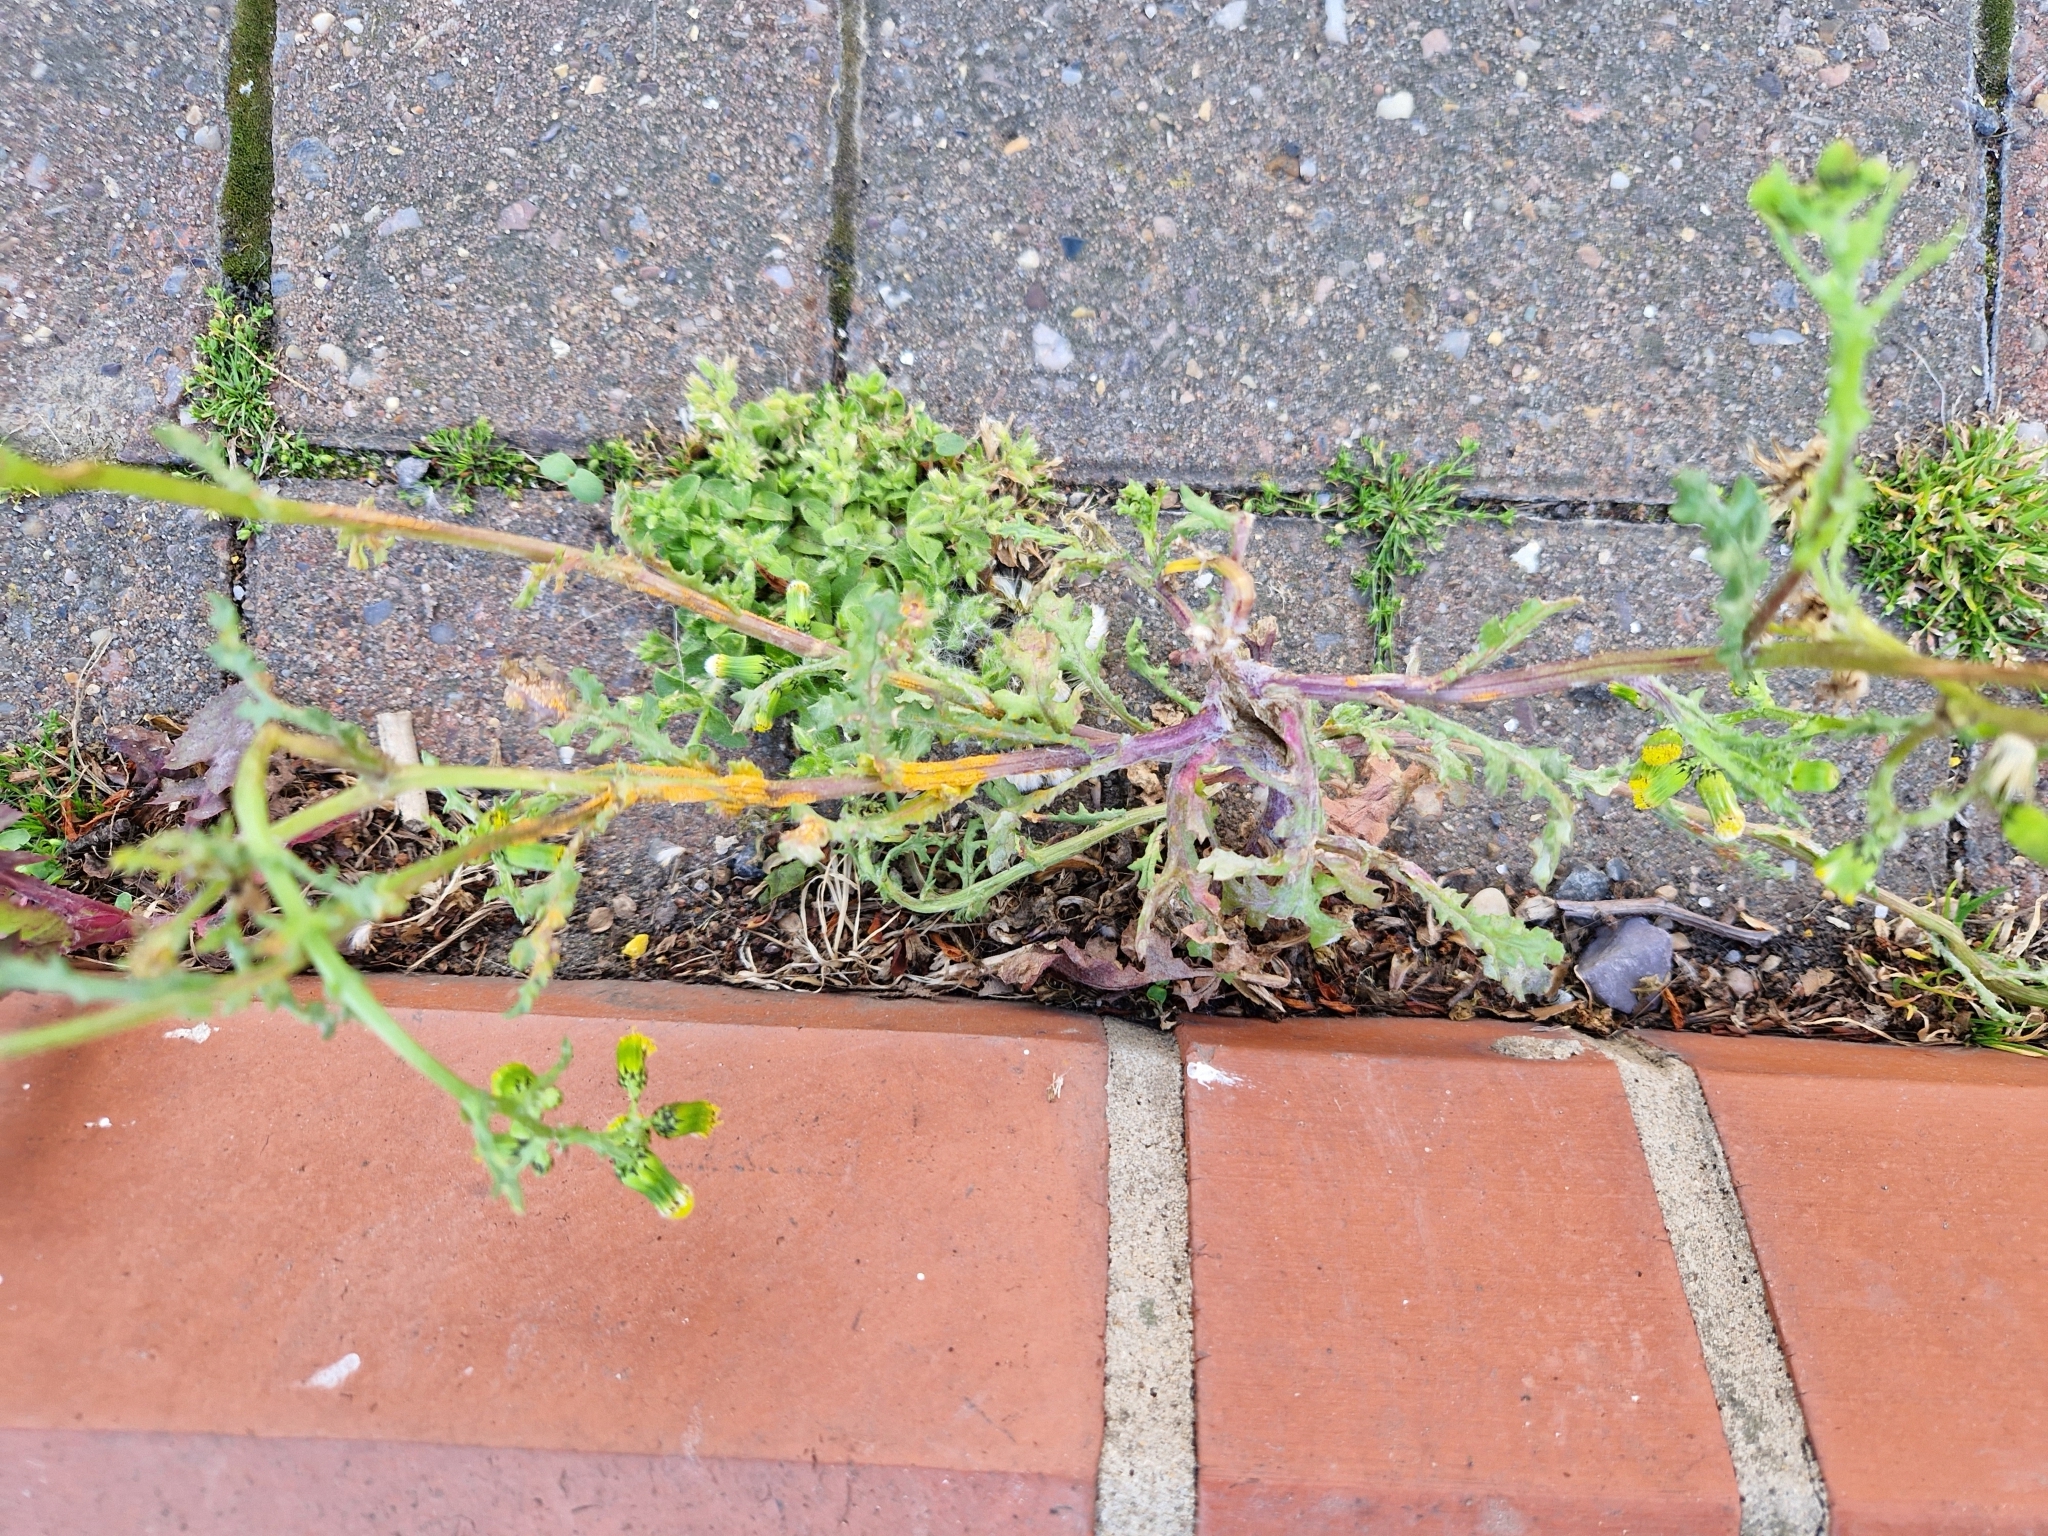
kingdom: Fungi
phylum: Basidiomycota
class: Pucciniomycetes
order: Pucciniales
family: Pucciniaceae
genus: Puccinia
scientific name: Puccinia lagenophorae
